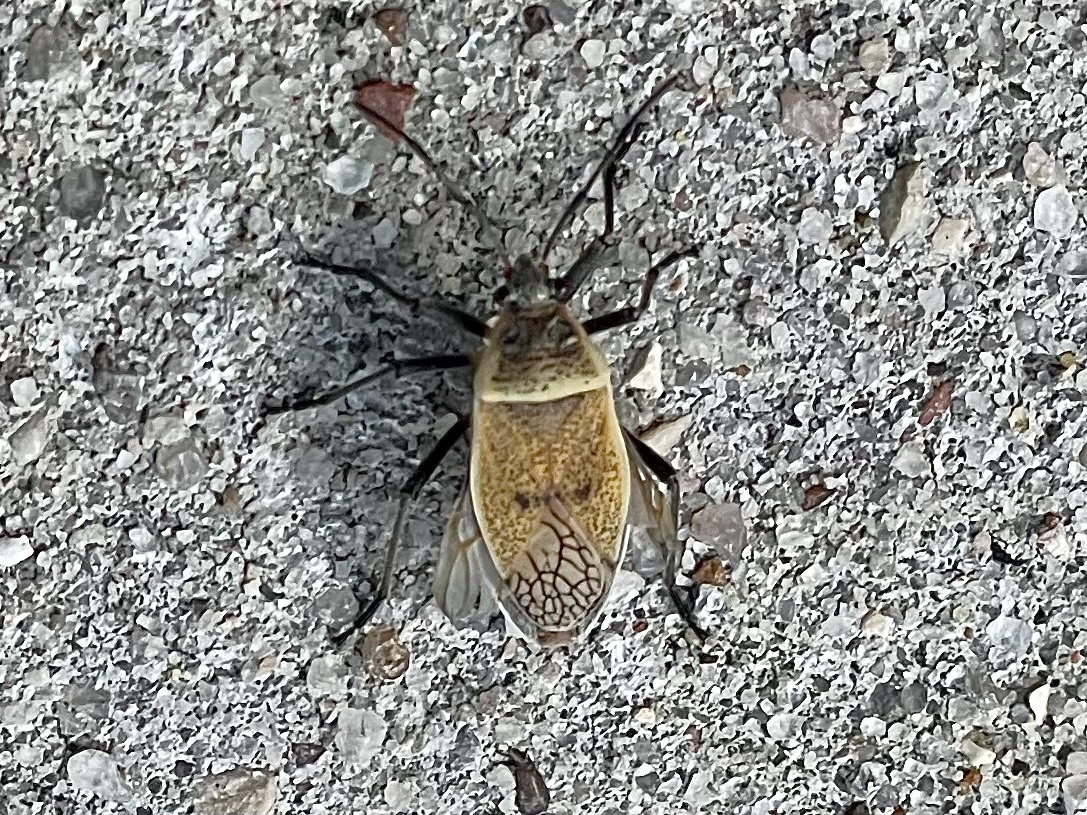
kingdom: Animalia
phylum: Arthropoda
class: Insecta
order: Hemiptera
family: Largidae
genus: Largus
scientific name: Largus maculatus
